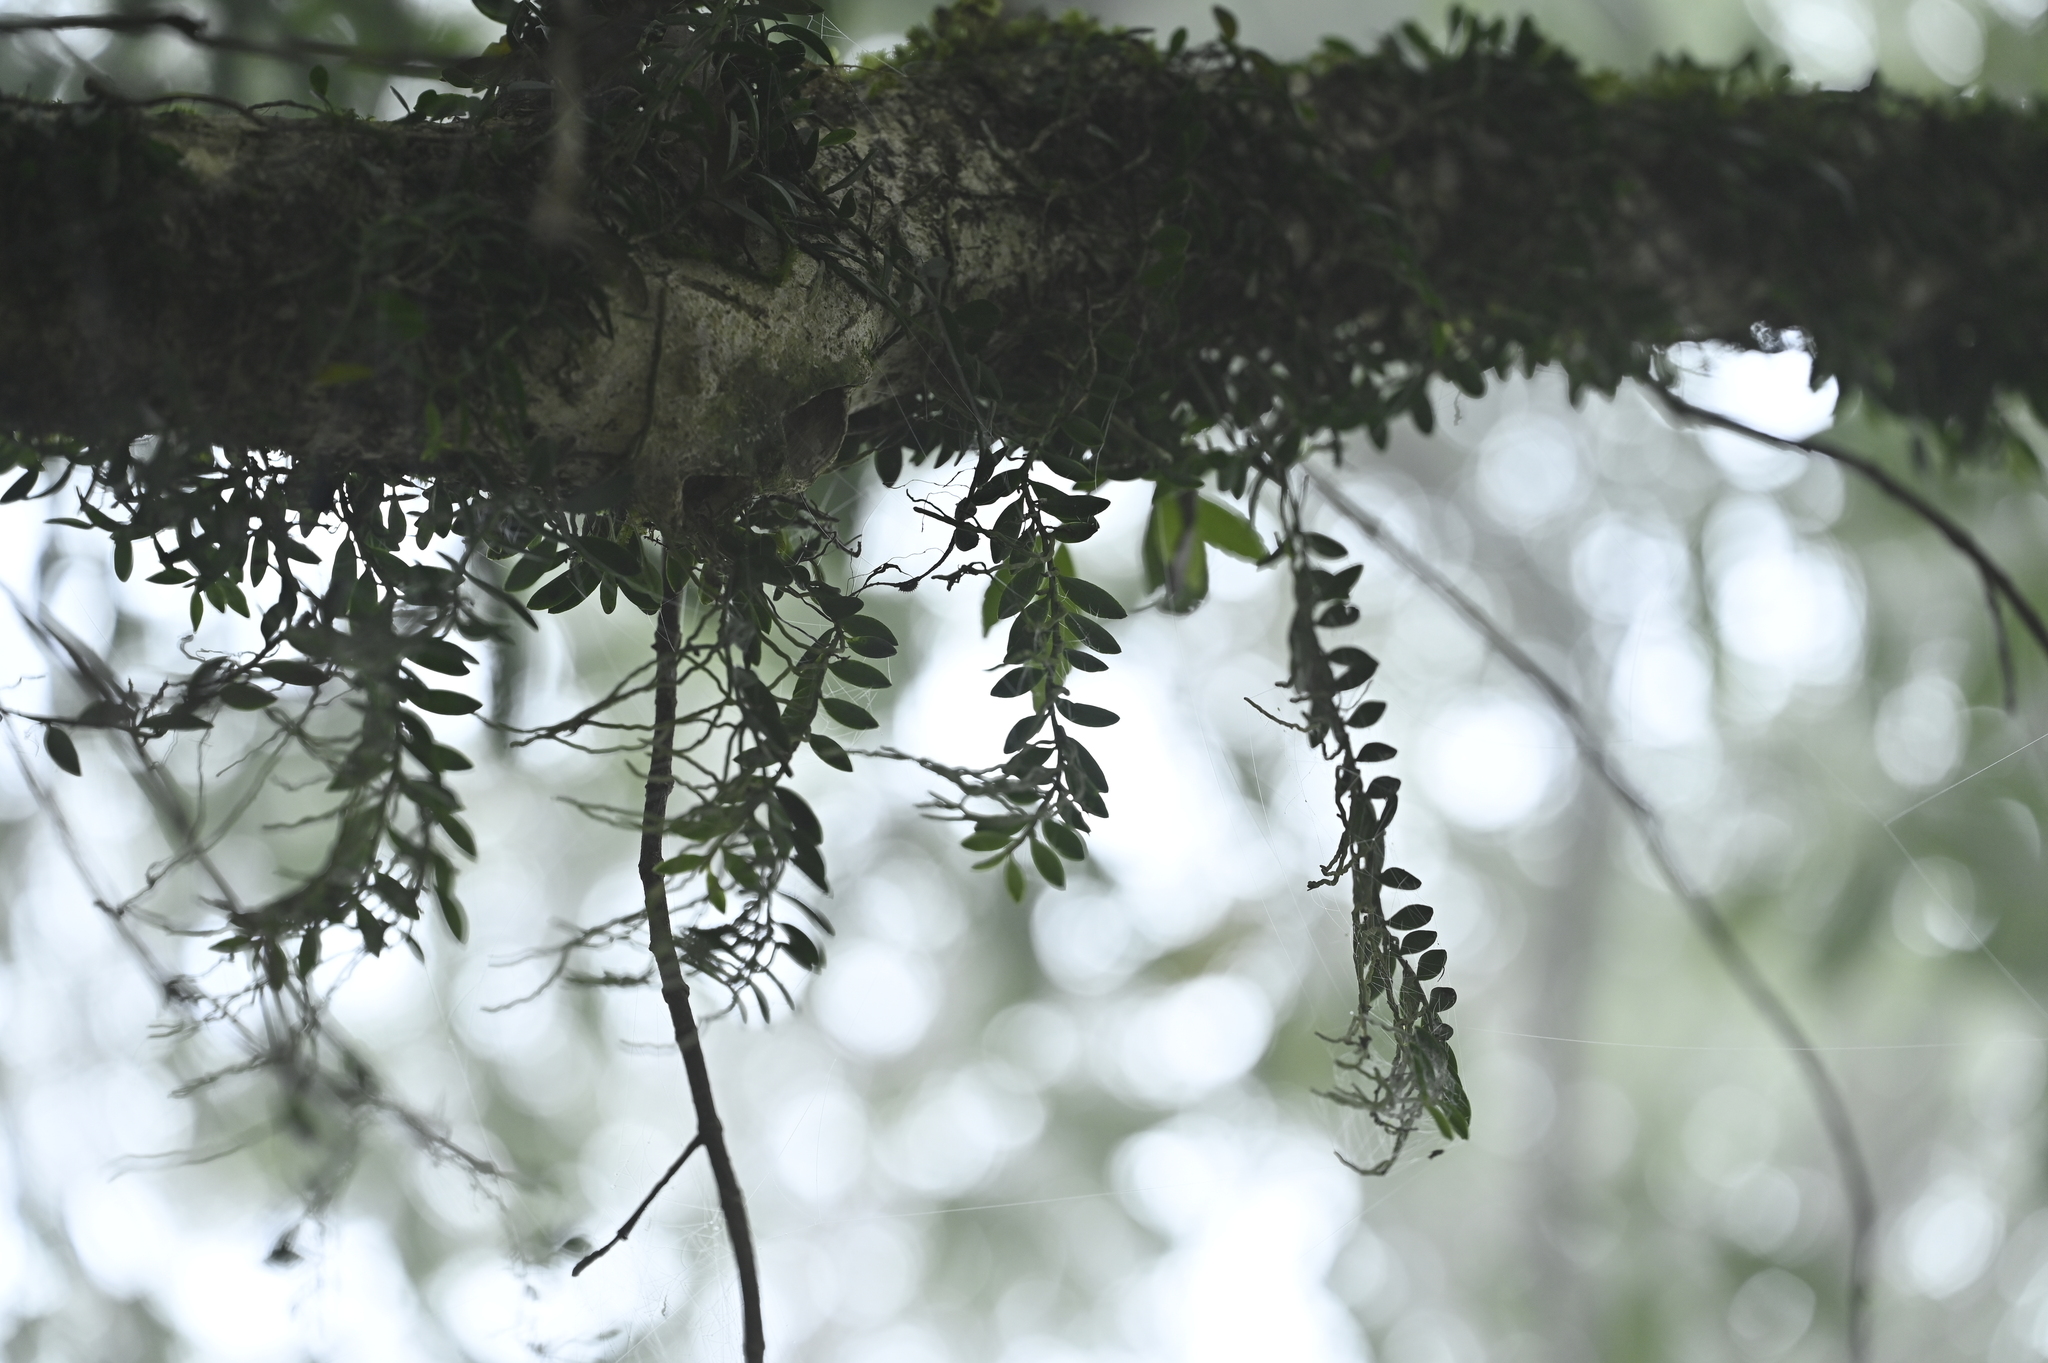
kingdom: Plantae
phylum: Tracheophyta
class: Liliopsida
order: Asparagales
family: Orchidaceae
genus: Gastrochilus
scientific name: Gastrochilus formosanus
